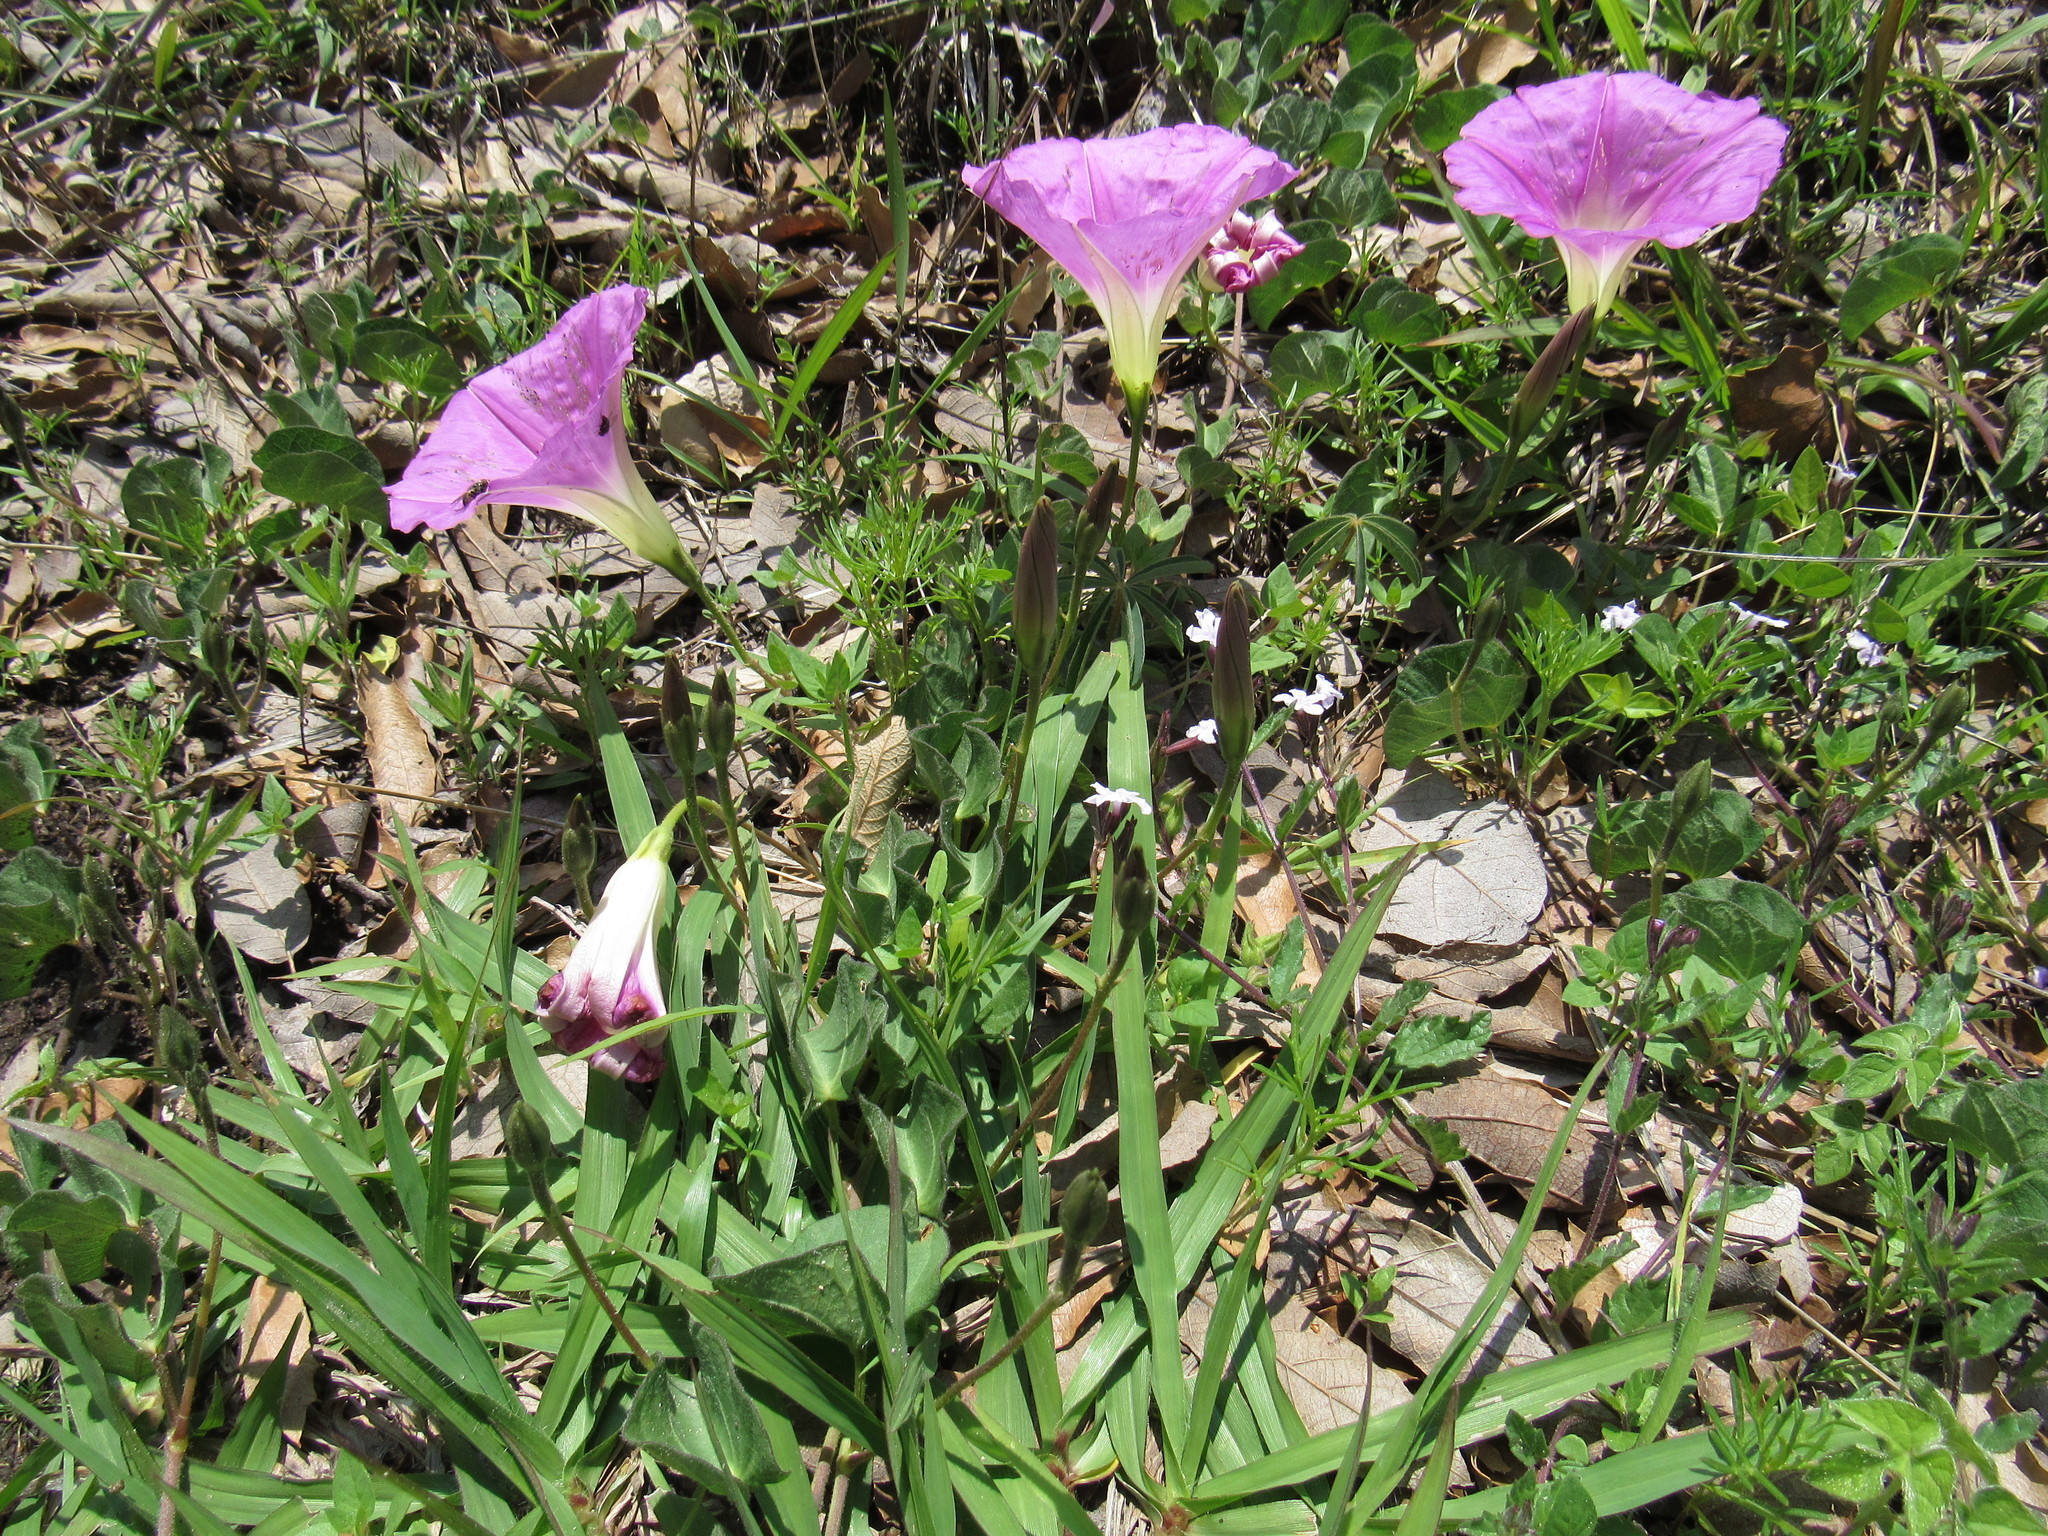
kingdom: Plantae
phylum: Tracheophyta
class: Magnoliopsida
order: Solanales
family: Convolvulaceae
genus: Ipomoea
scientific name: Ipomoea hartwegii
